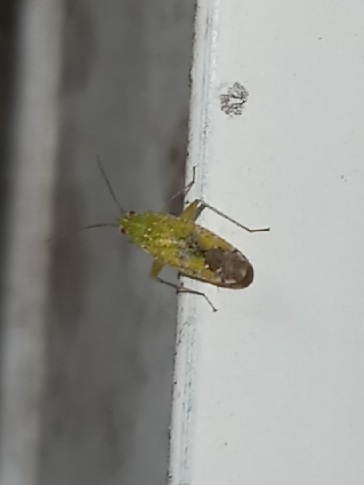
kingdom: Animalia
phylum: Arthropoda
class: Insecta
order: Hemiptera
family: Miridae
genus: Keltonia
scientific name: Keltonia tuckeri
